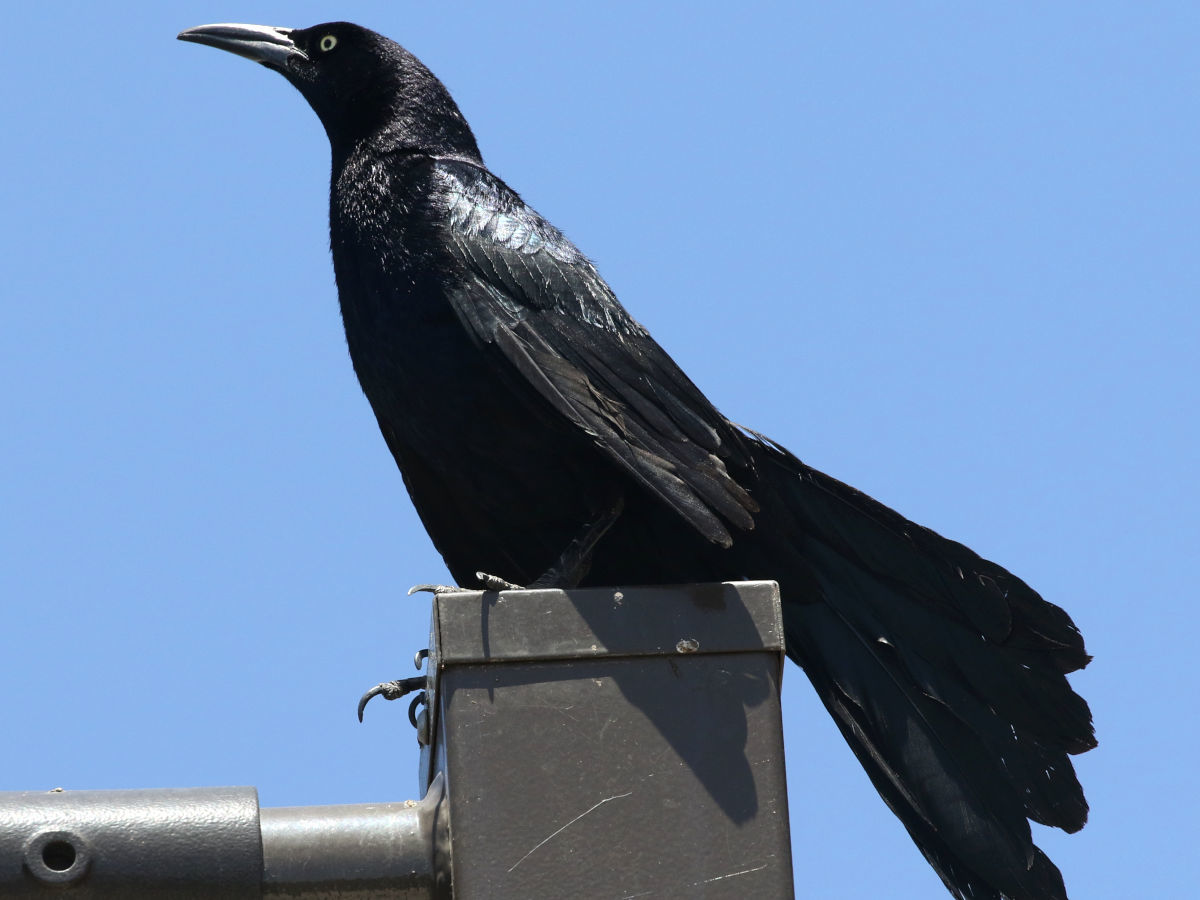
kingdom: Animalia
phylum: Chordata
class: Aves
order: Passeriformes
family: Icteridae
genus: Quiscalus
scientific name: Quiscalus mexicanus
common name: Great-tailed grackle
